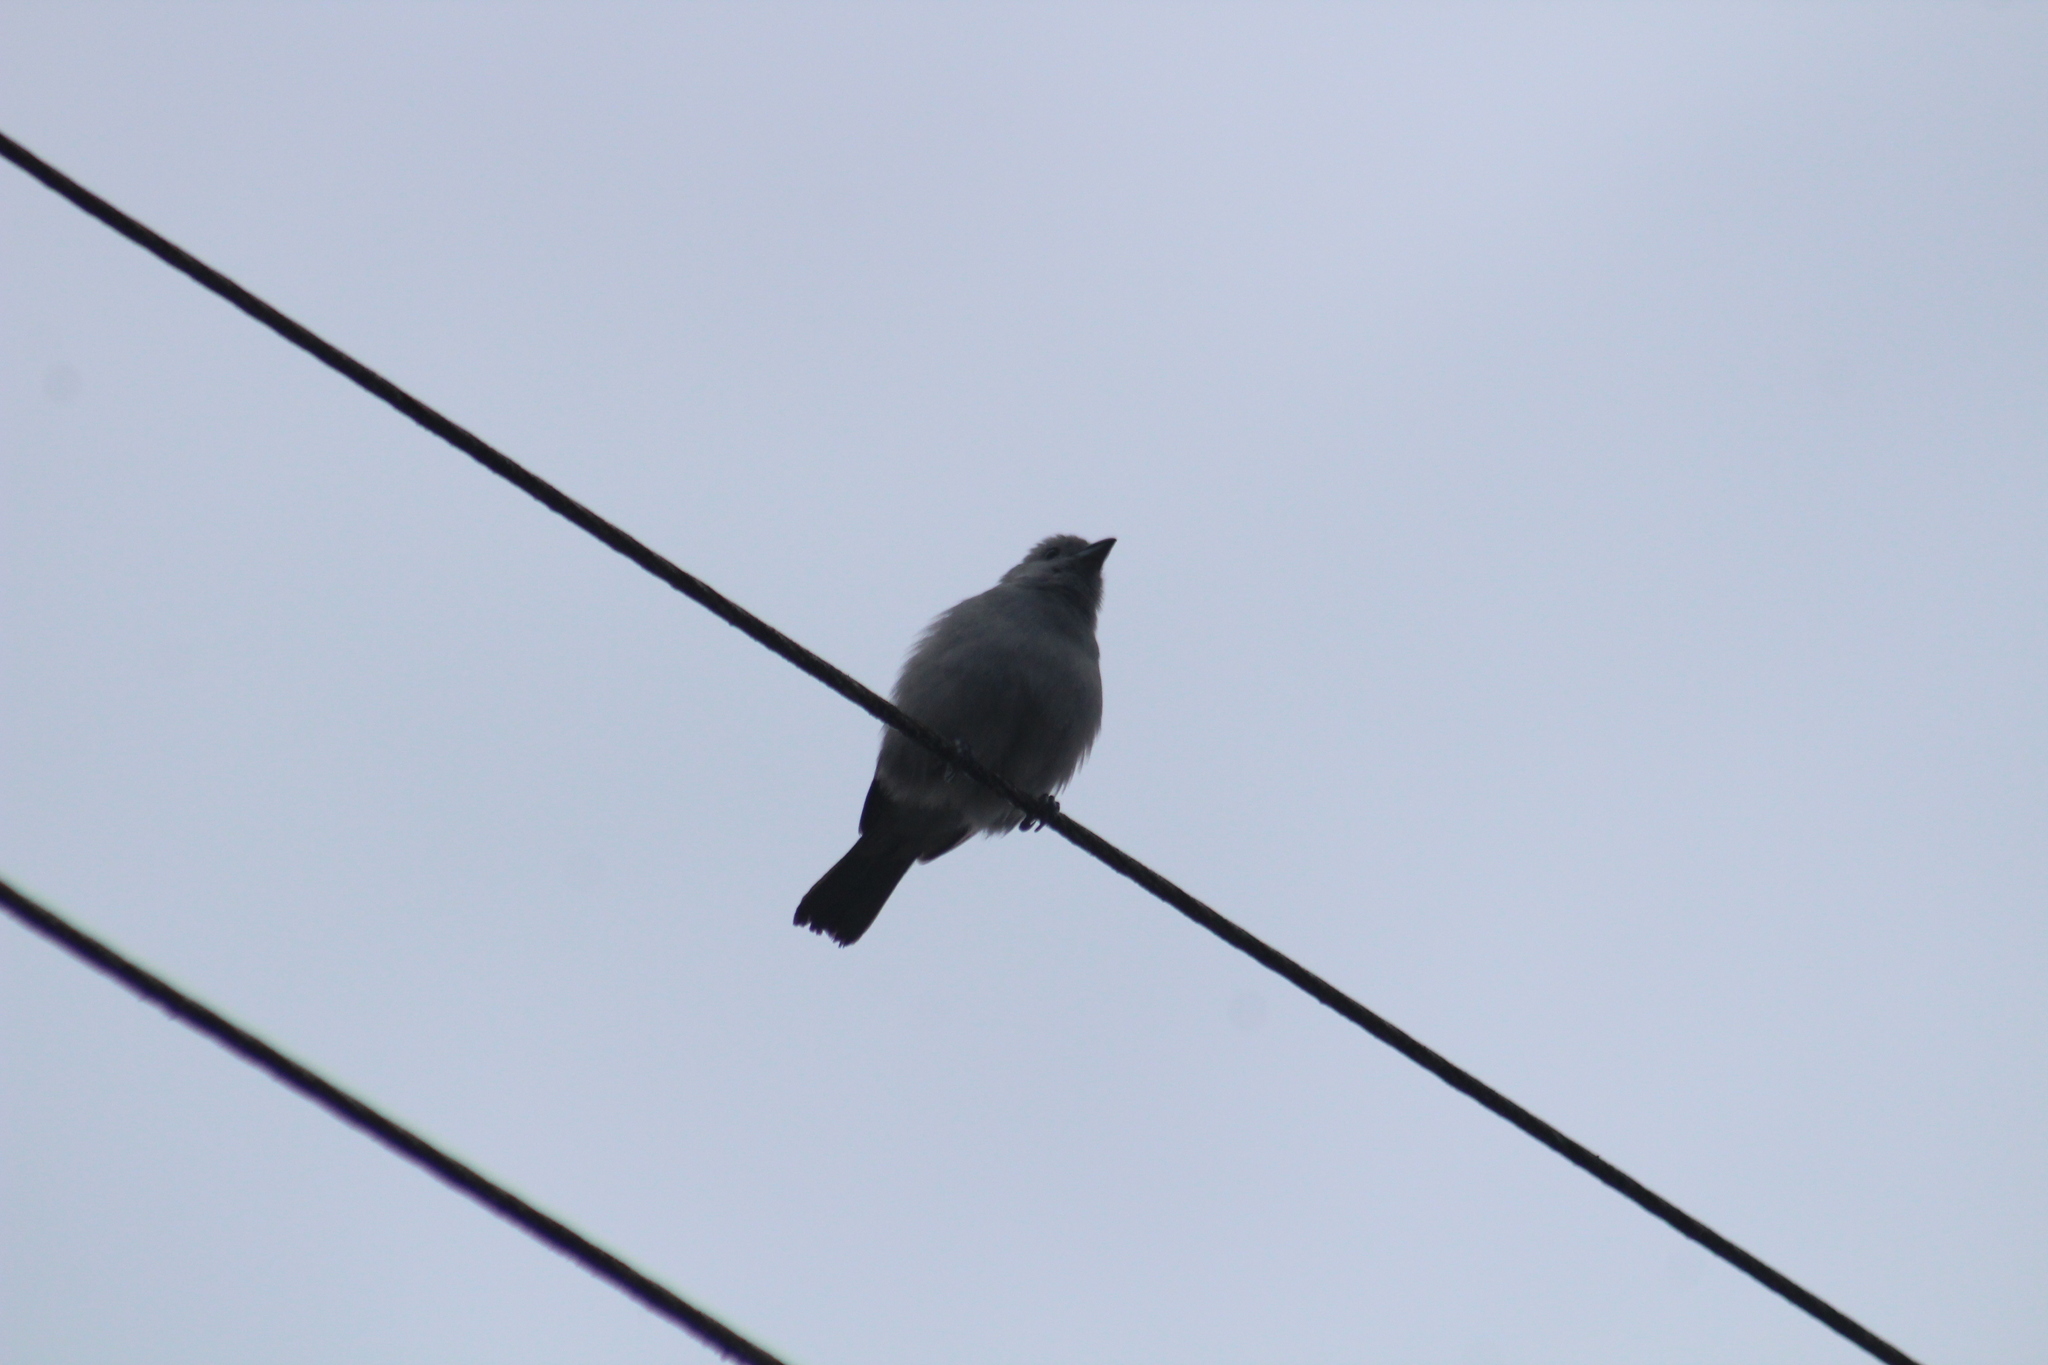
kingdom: Animalia
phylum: Chordata
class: Aves
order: Passeriformes
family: Thraupidae
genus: Thraupis
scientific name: Thraupis episcopus
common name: Blue-grey tanager
